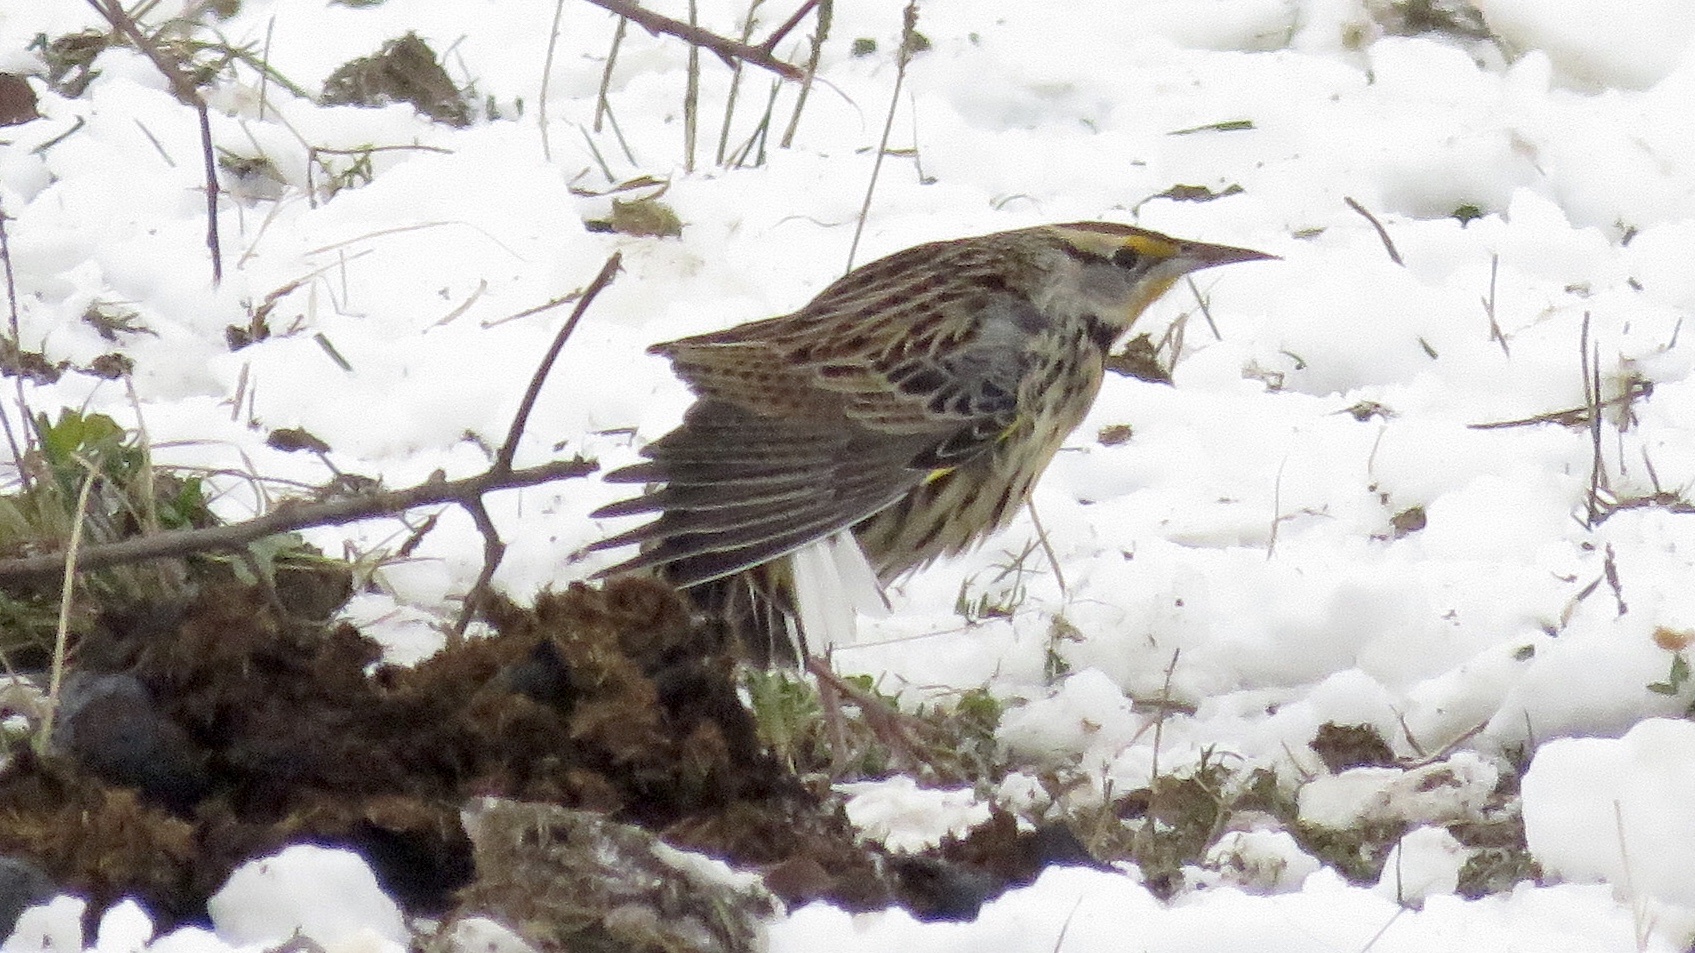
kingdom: Animalia
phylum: Chordata
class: Aves
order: Passeriformes
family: Icteridae
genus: Sturnella
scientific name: Sturnella magna
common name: Eastern meadowlark
